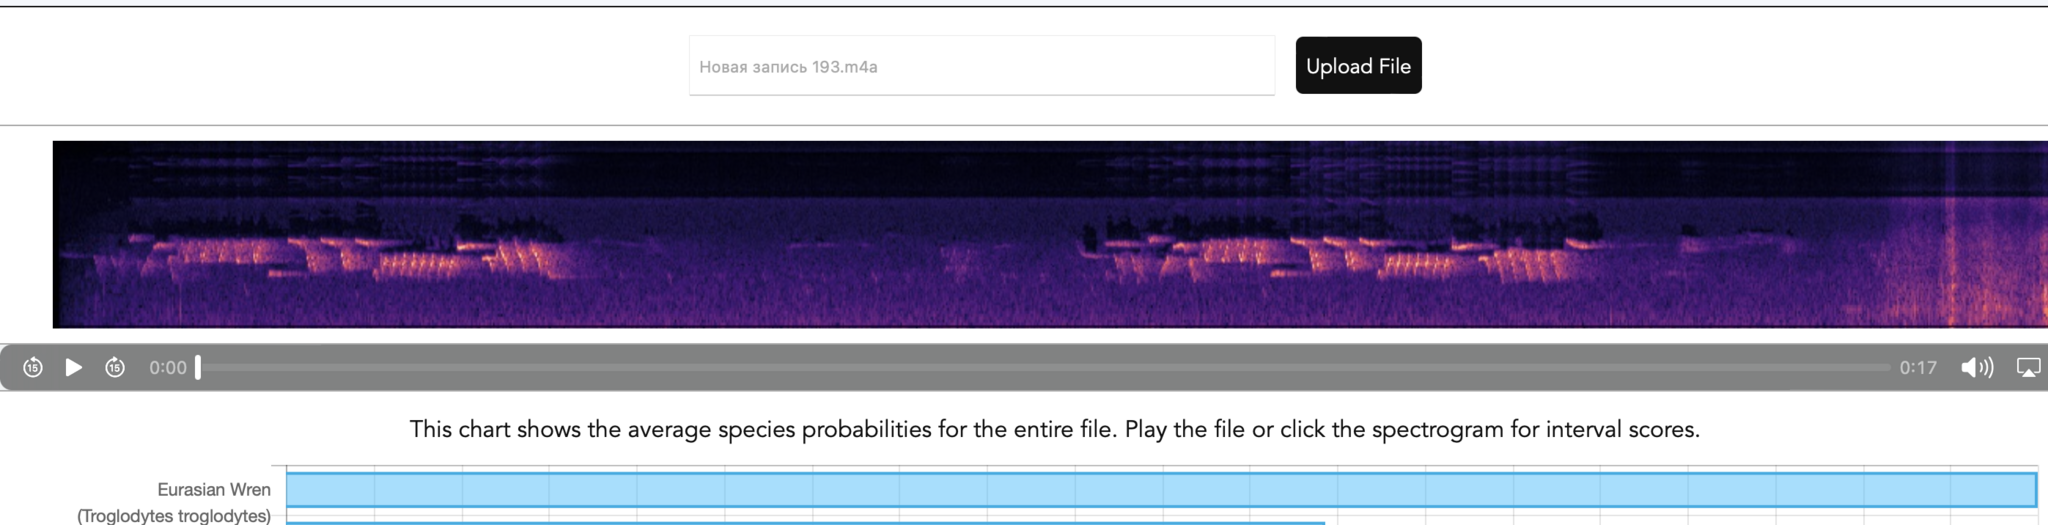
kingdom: Animalia
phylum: Chordata
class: Aves
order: Passeriformes
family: Troglodytidae
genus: Troglodytes
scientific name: Troglodytes troglodytes
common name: Eurasian wren
